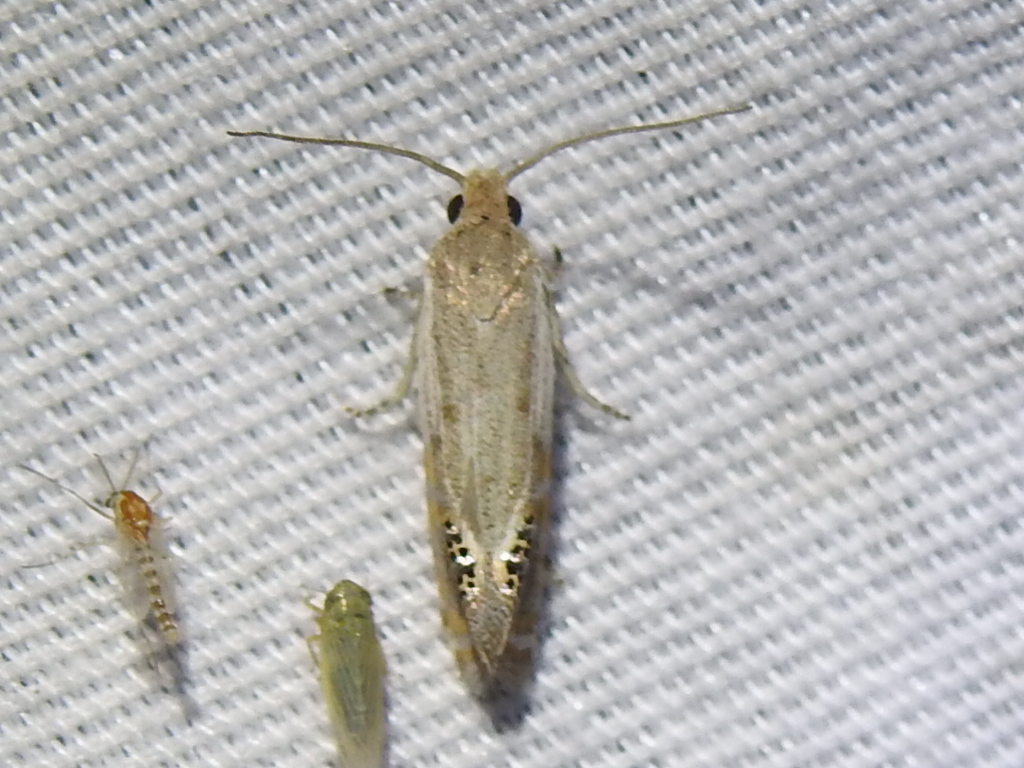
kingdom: Animalia
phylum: Arthropoda
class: Insecta
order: Lepidoptera
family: Tortricidae
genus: Pelochrista
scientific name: Pelochrista scintillana
